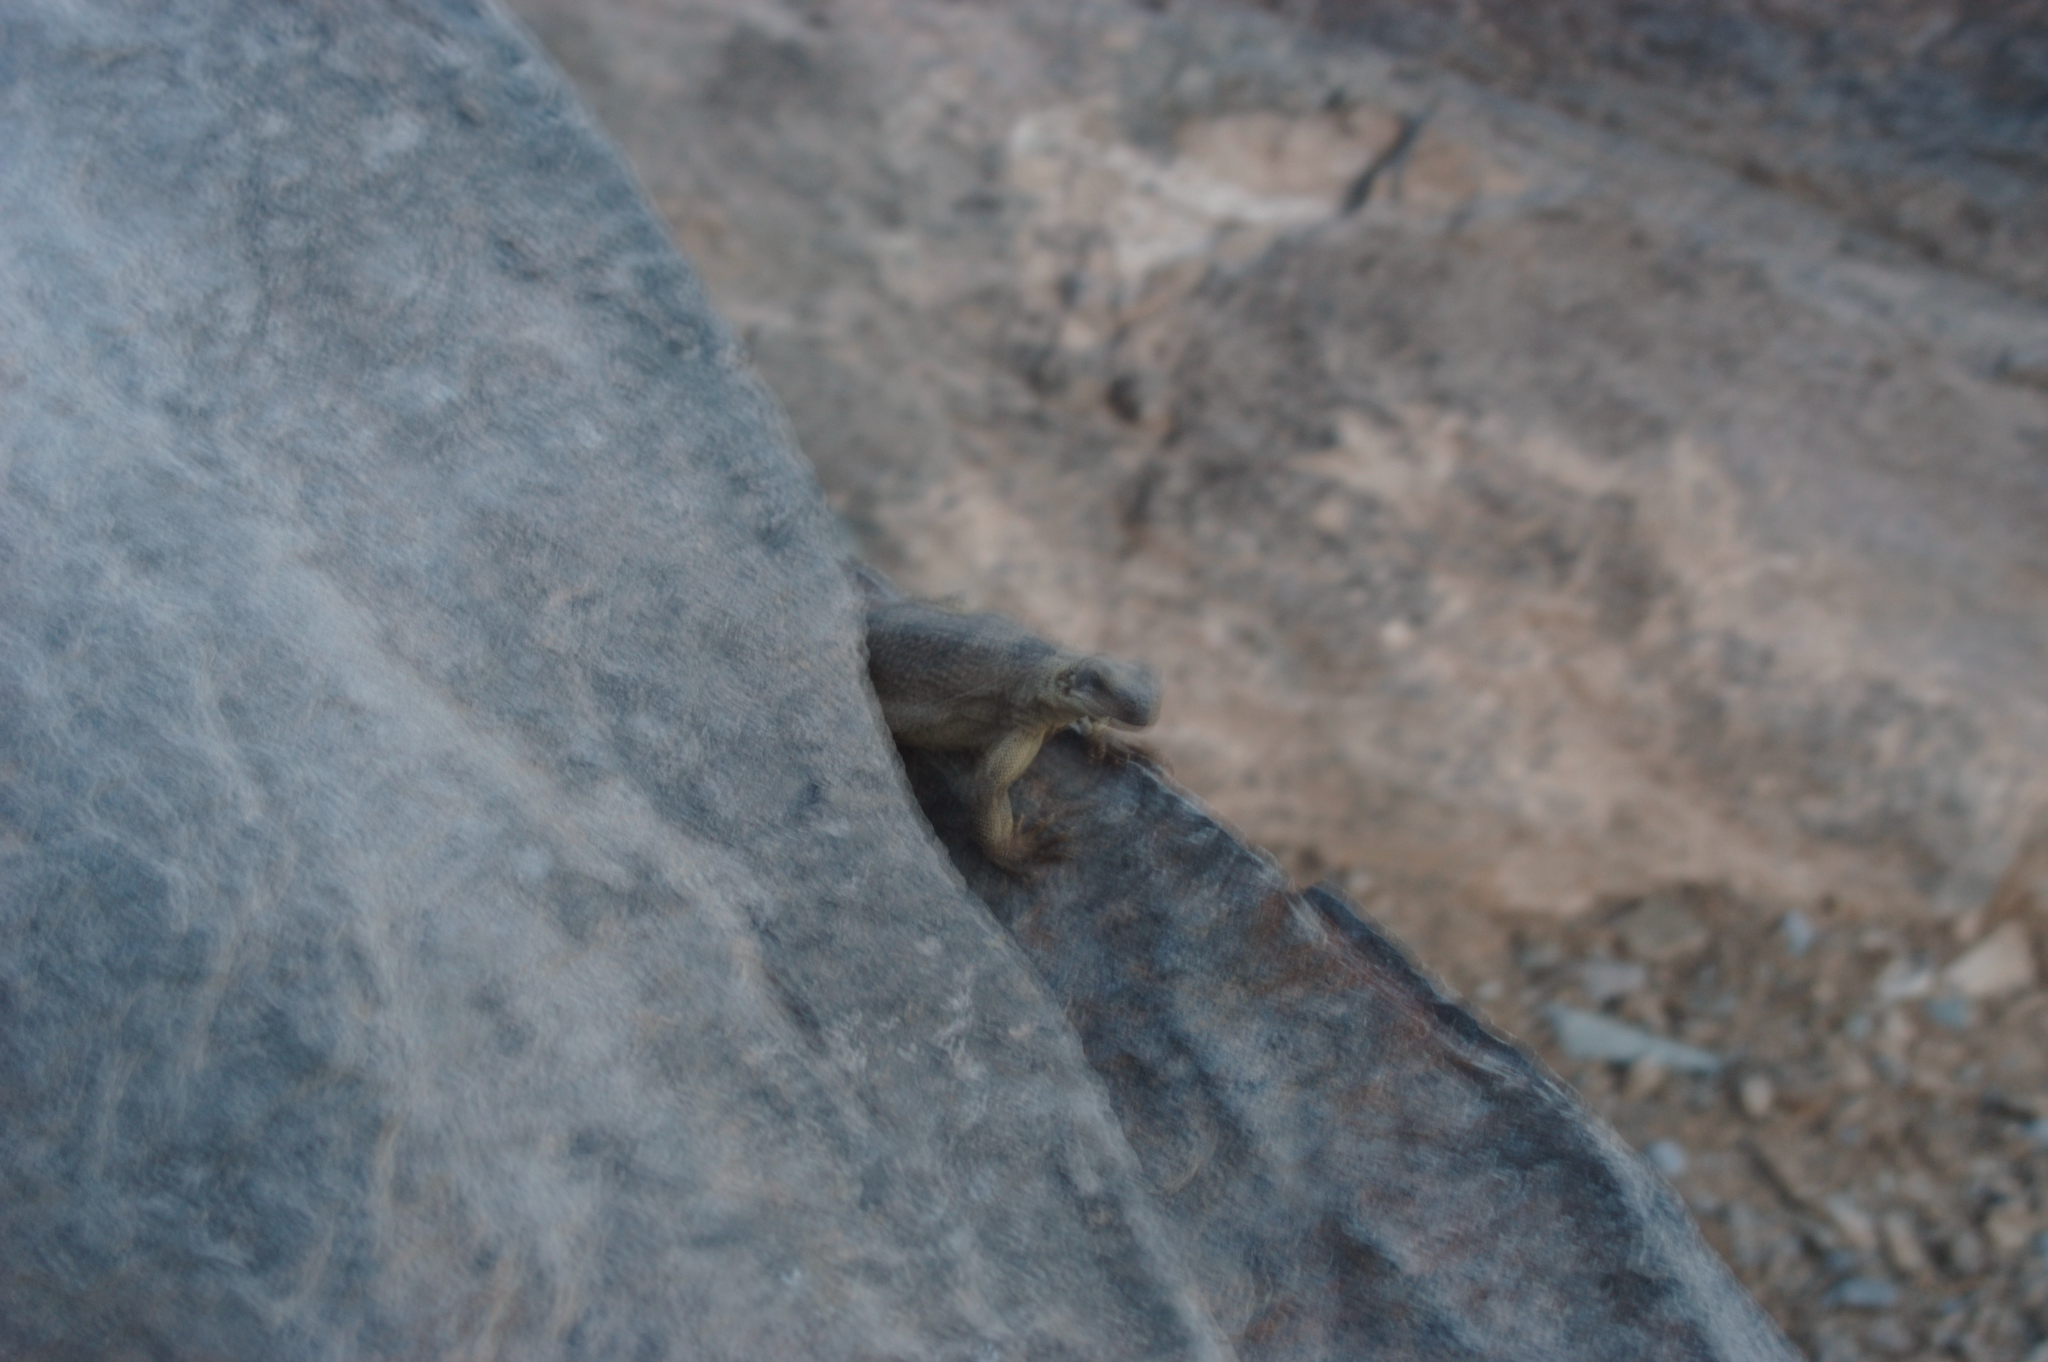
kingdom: Animalia
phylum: Chordata
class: Squamata
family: Iguanidae
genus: Sauromalus
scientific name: Sauromalus ater
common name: Northern chuckwalla
